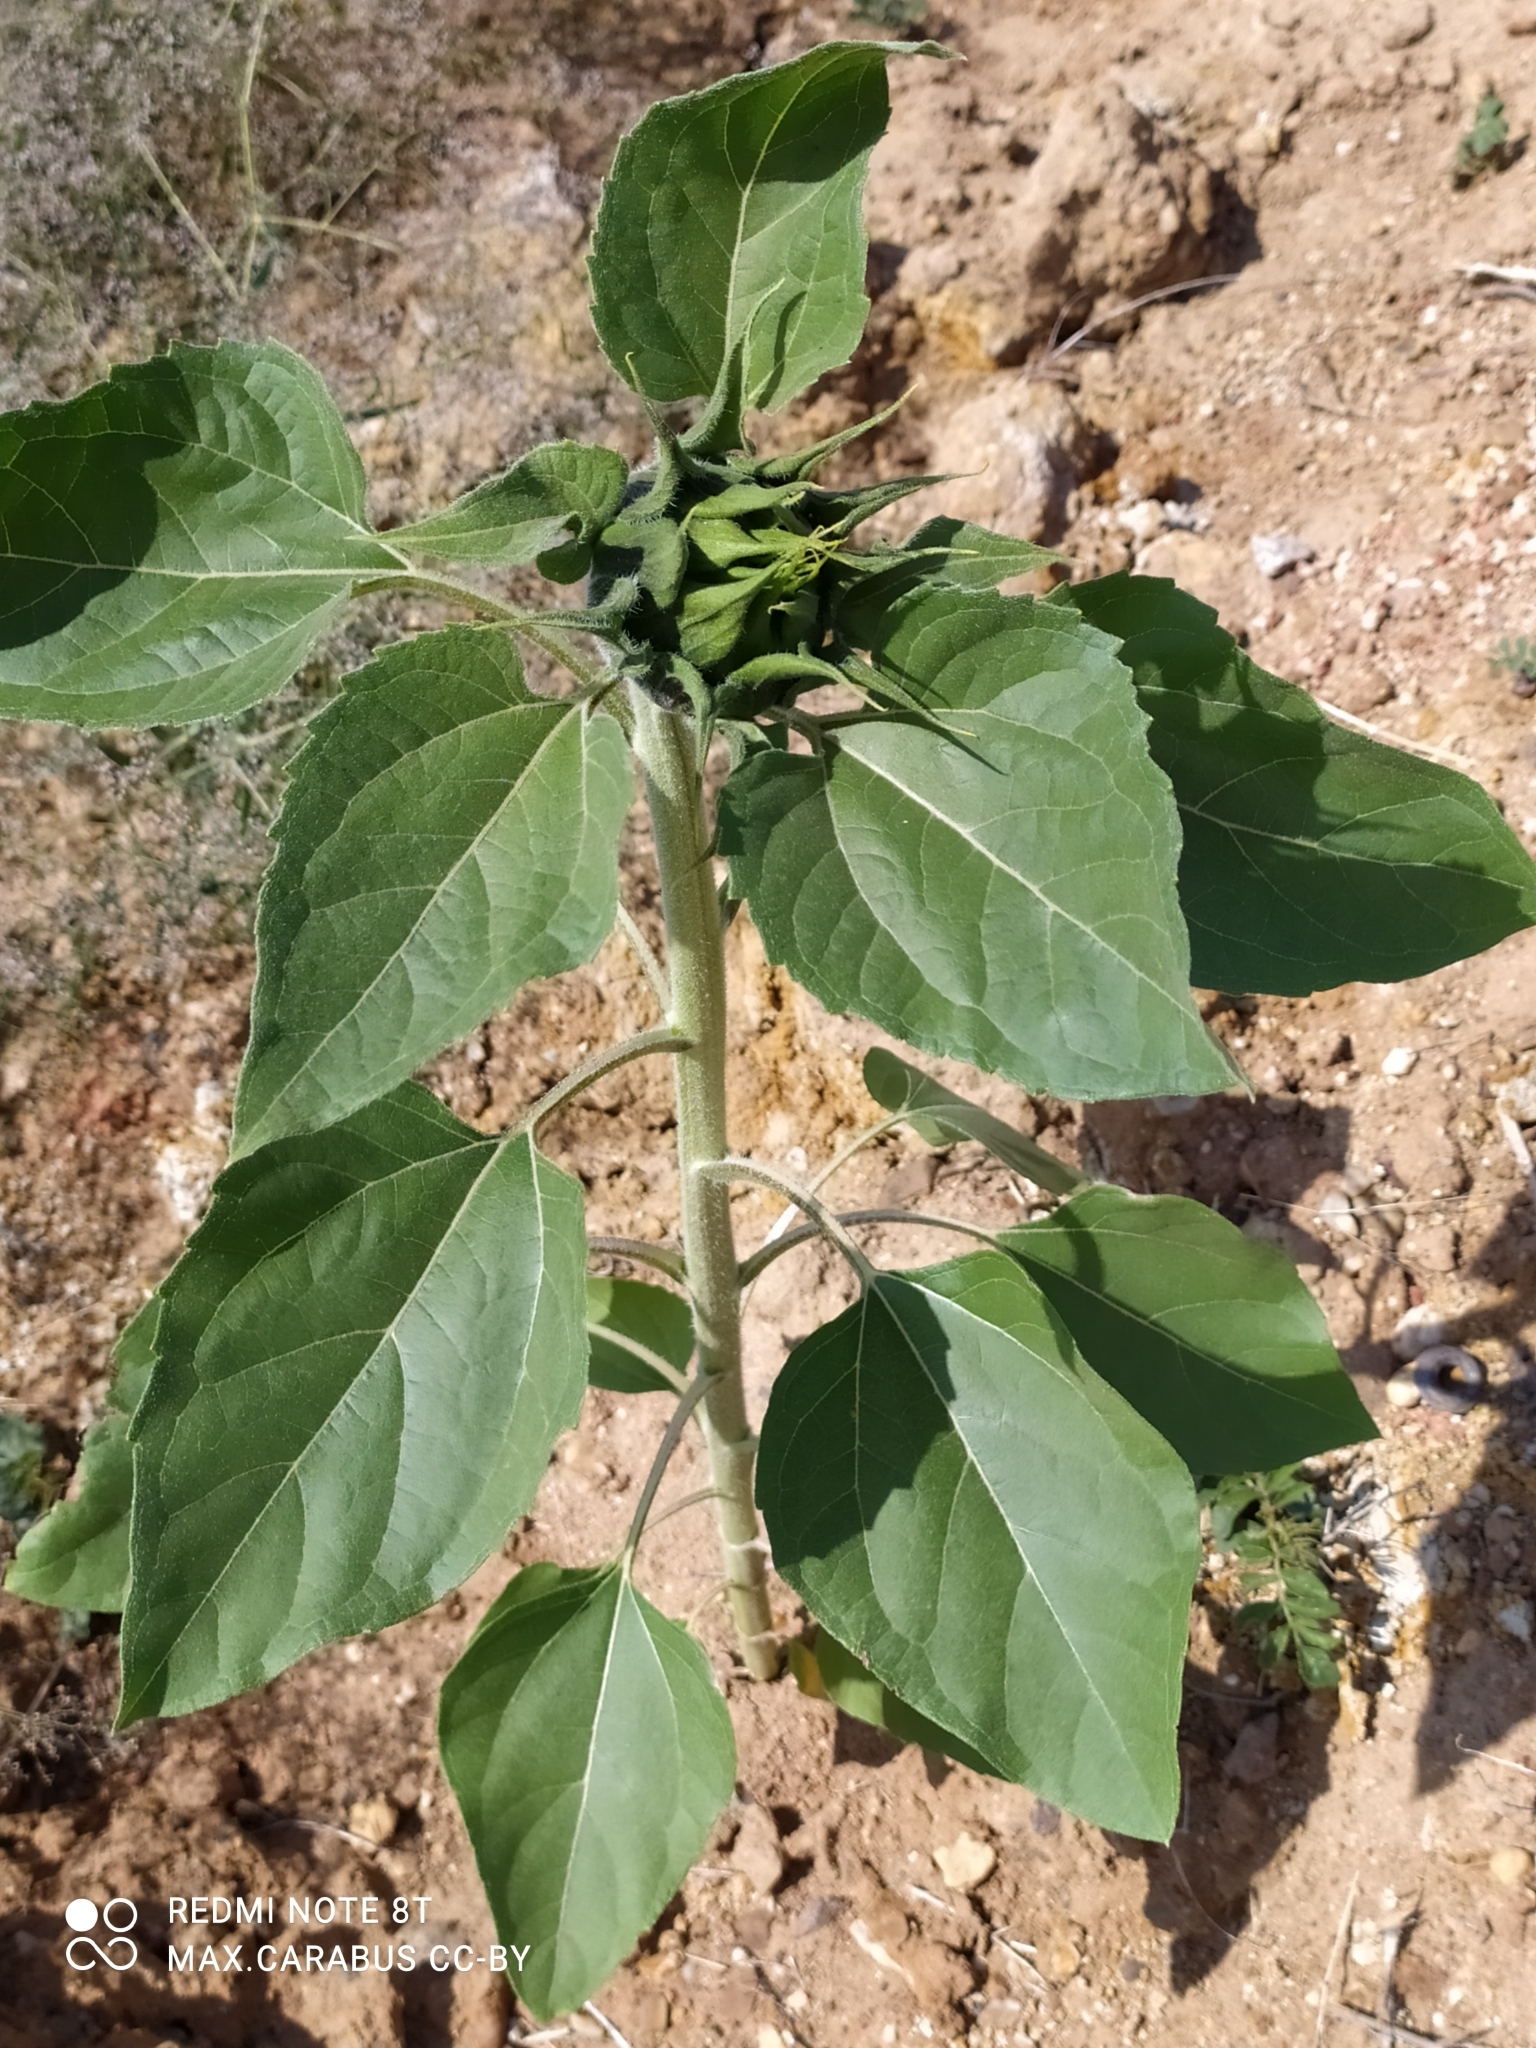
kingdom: Plantae
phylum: Tracheophyta
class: Magnoliopsida
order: Asterales
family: Asteraceae
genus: Helianthus
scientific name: Helianthus annuus
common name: Sunflower
